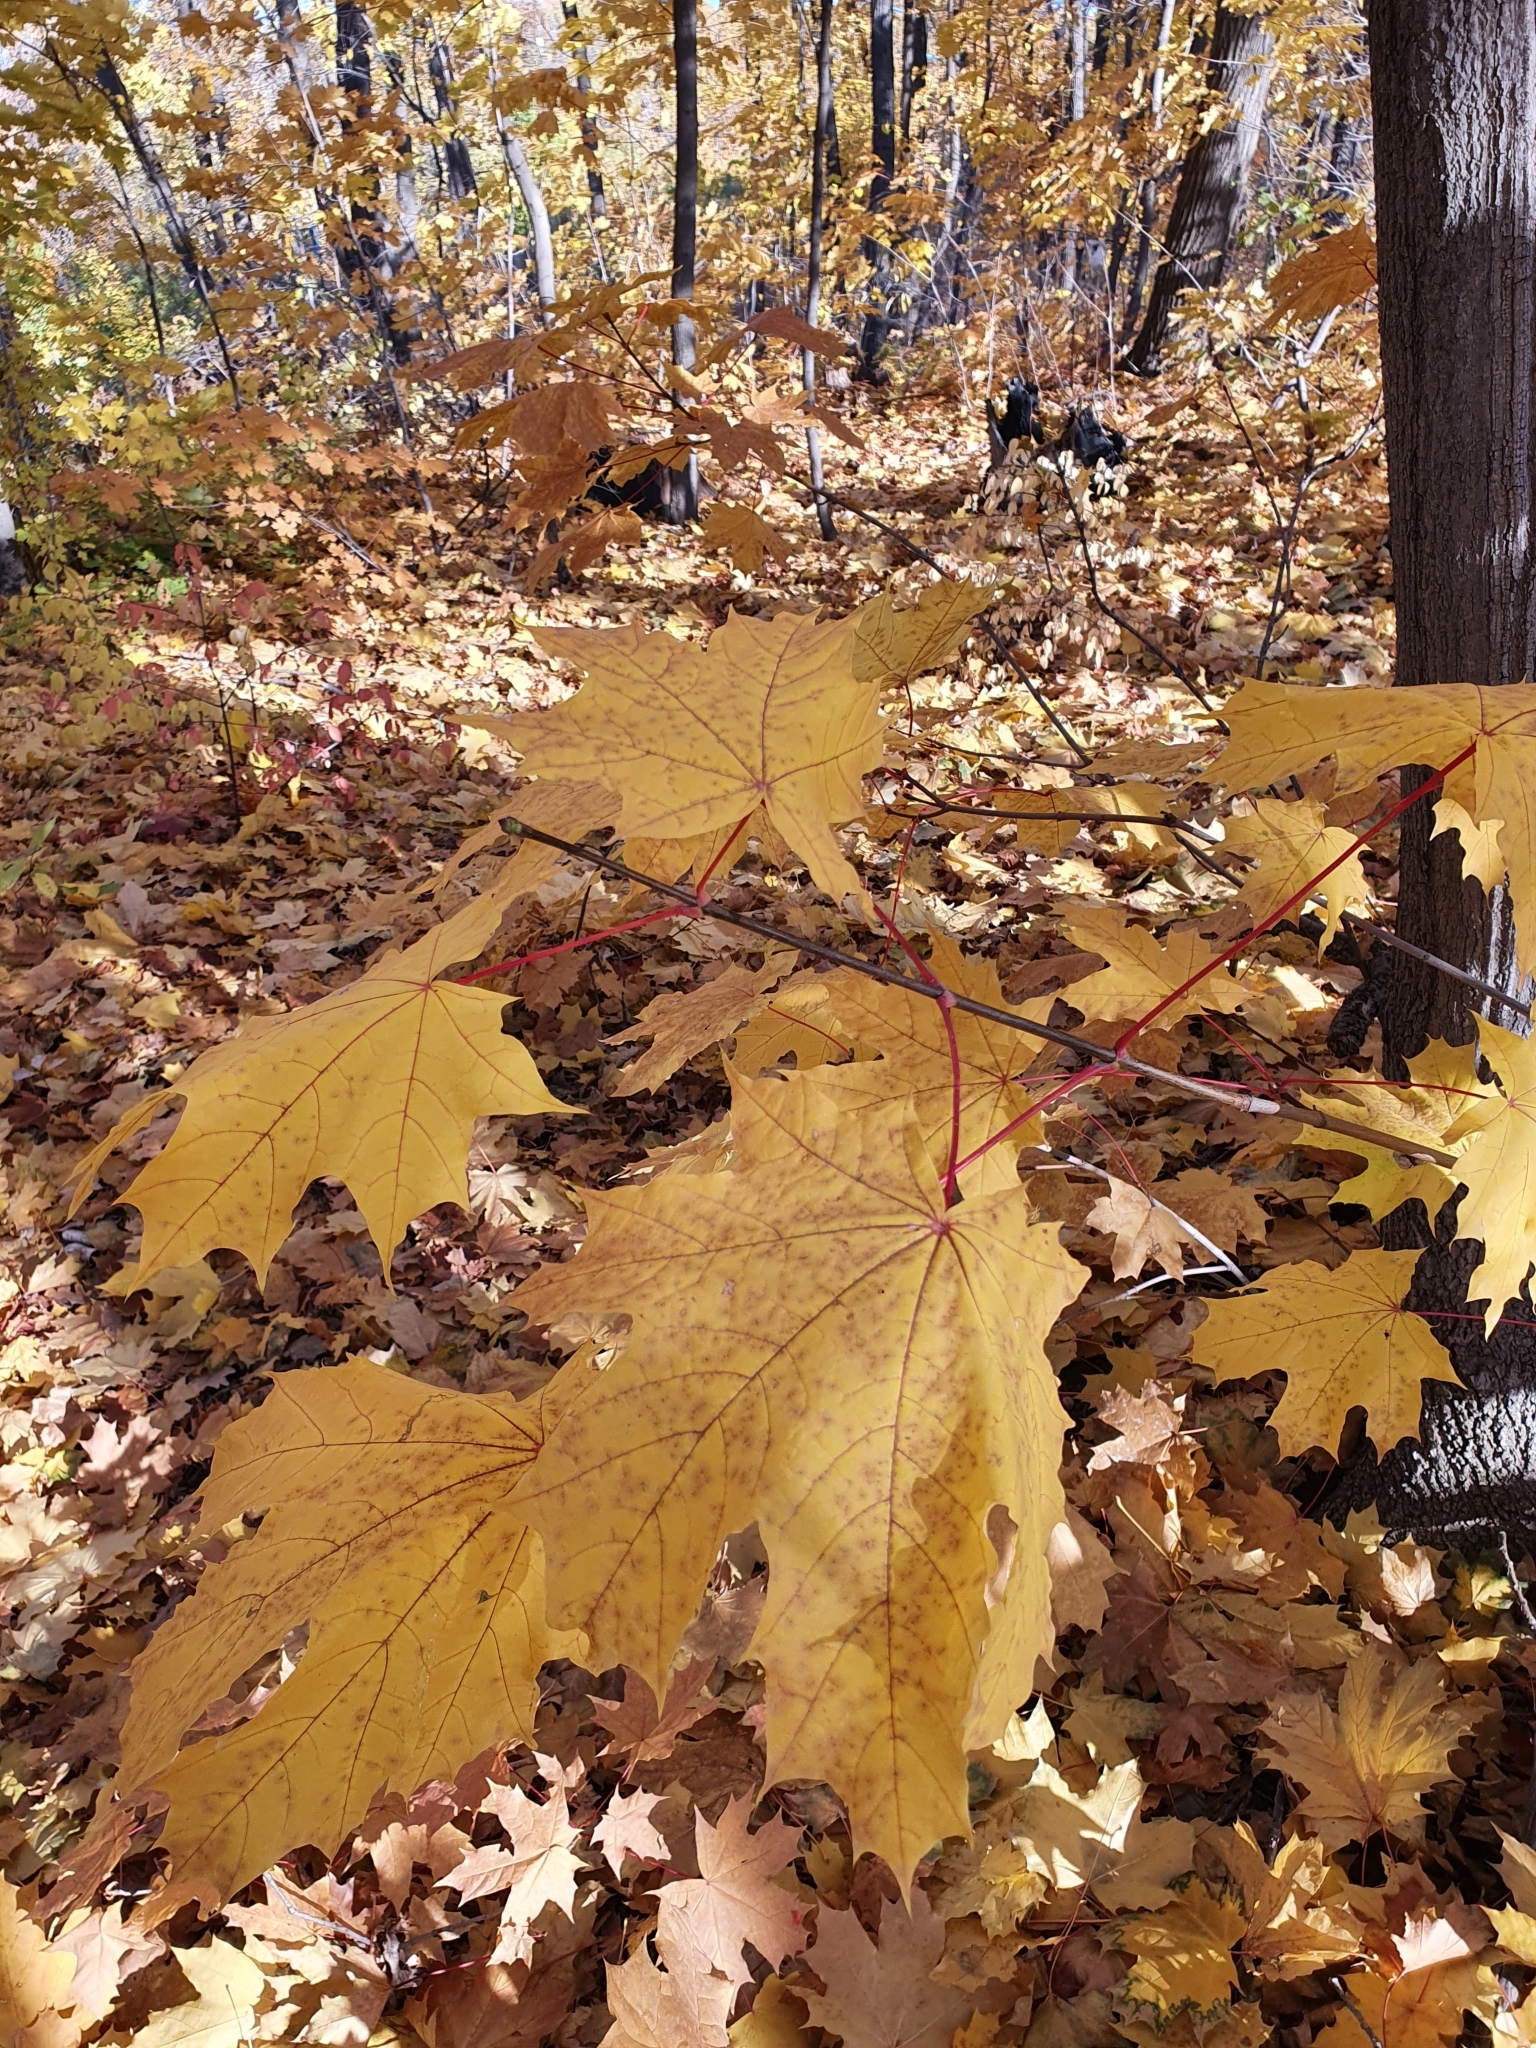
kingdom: Plantae
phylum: Tracheophyta
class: Magnoliopsida
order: Sapindales
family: Sapindaceae
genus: Acer
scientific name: Acer platanoides
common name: Norway maple
